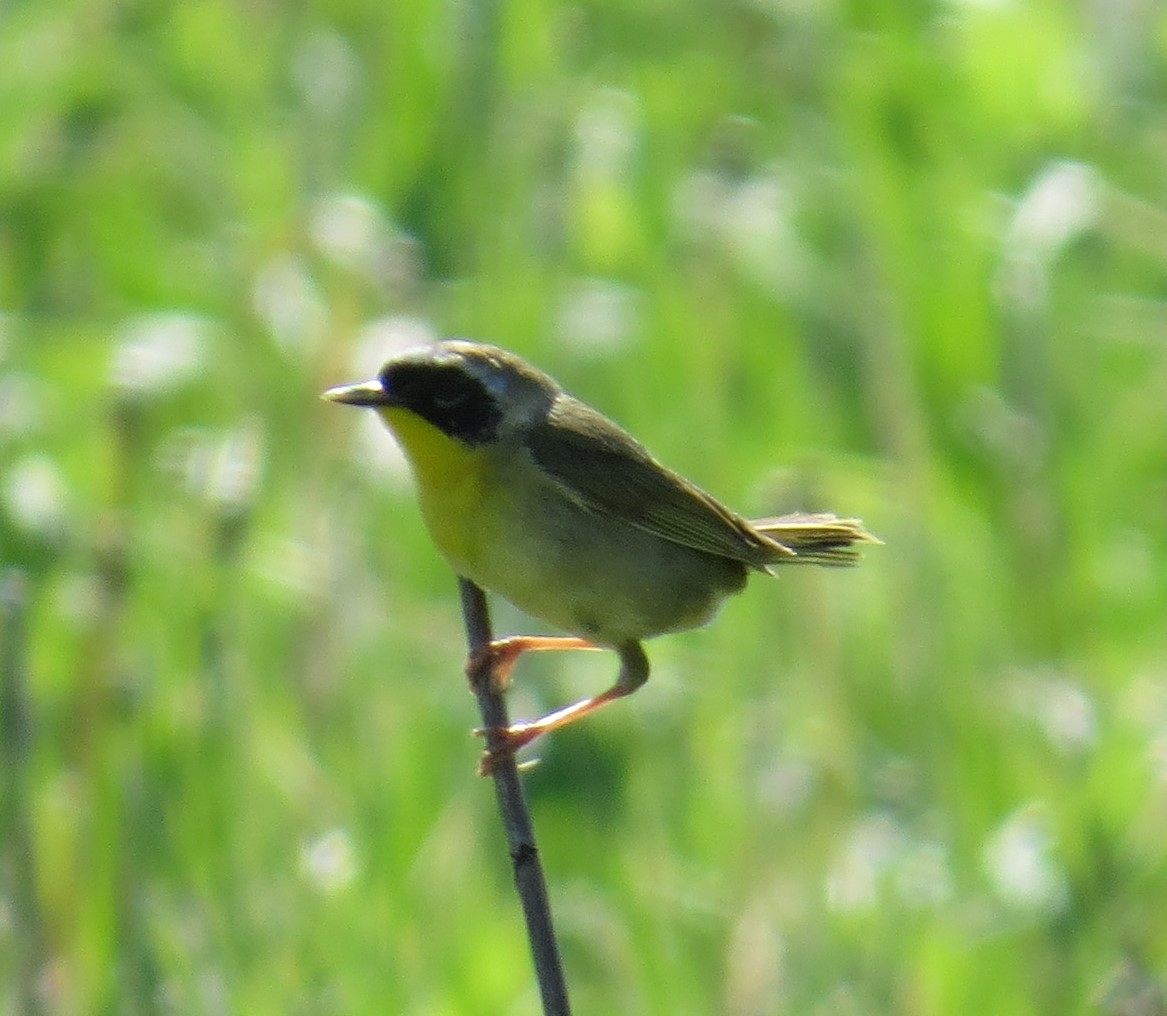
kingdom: Animalia
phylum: Chordata
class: Aves
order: Passeriformes
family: Parulidae
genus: Geothlypis
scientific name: Geothlypis trichas
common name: Common yellowthroat
